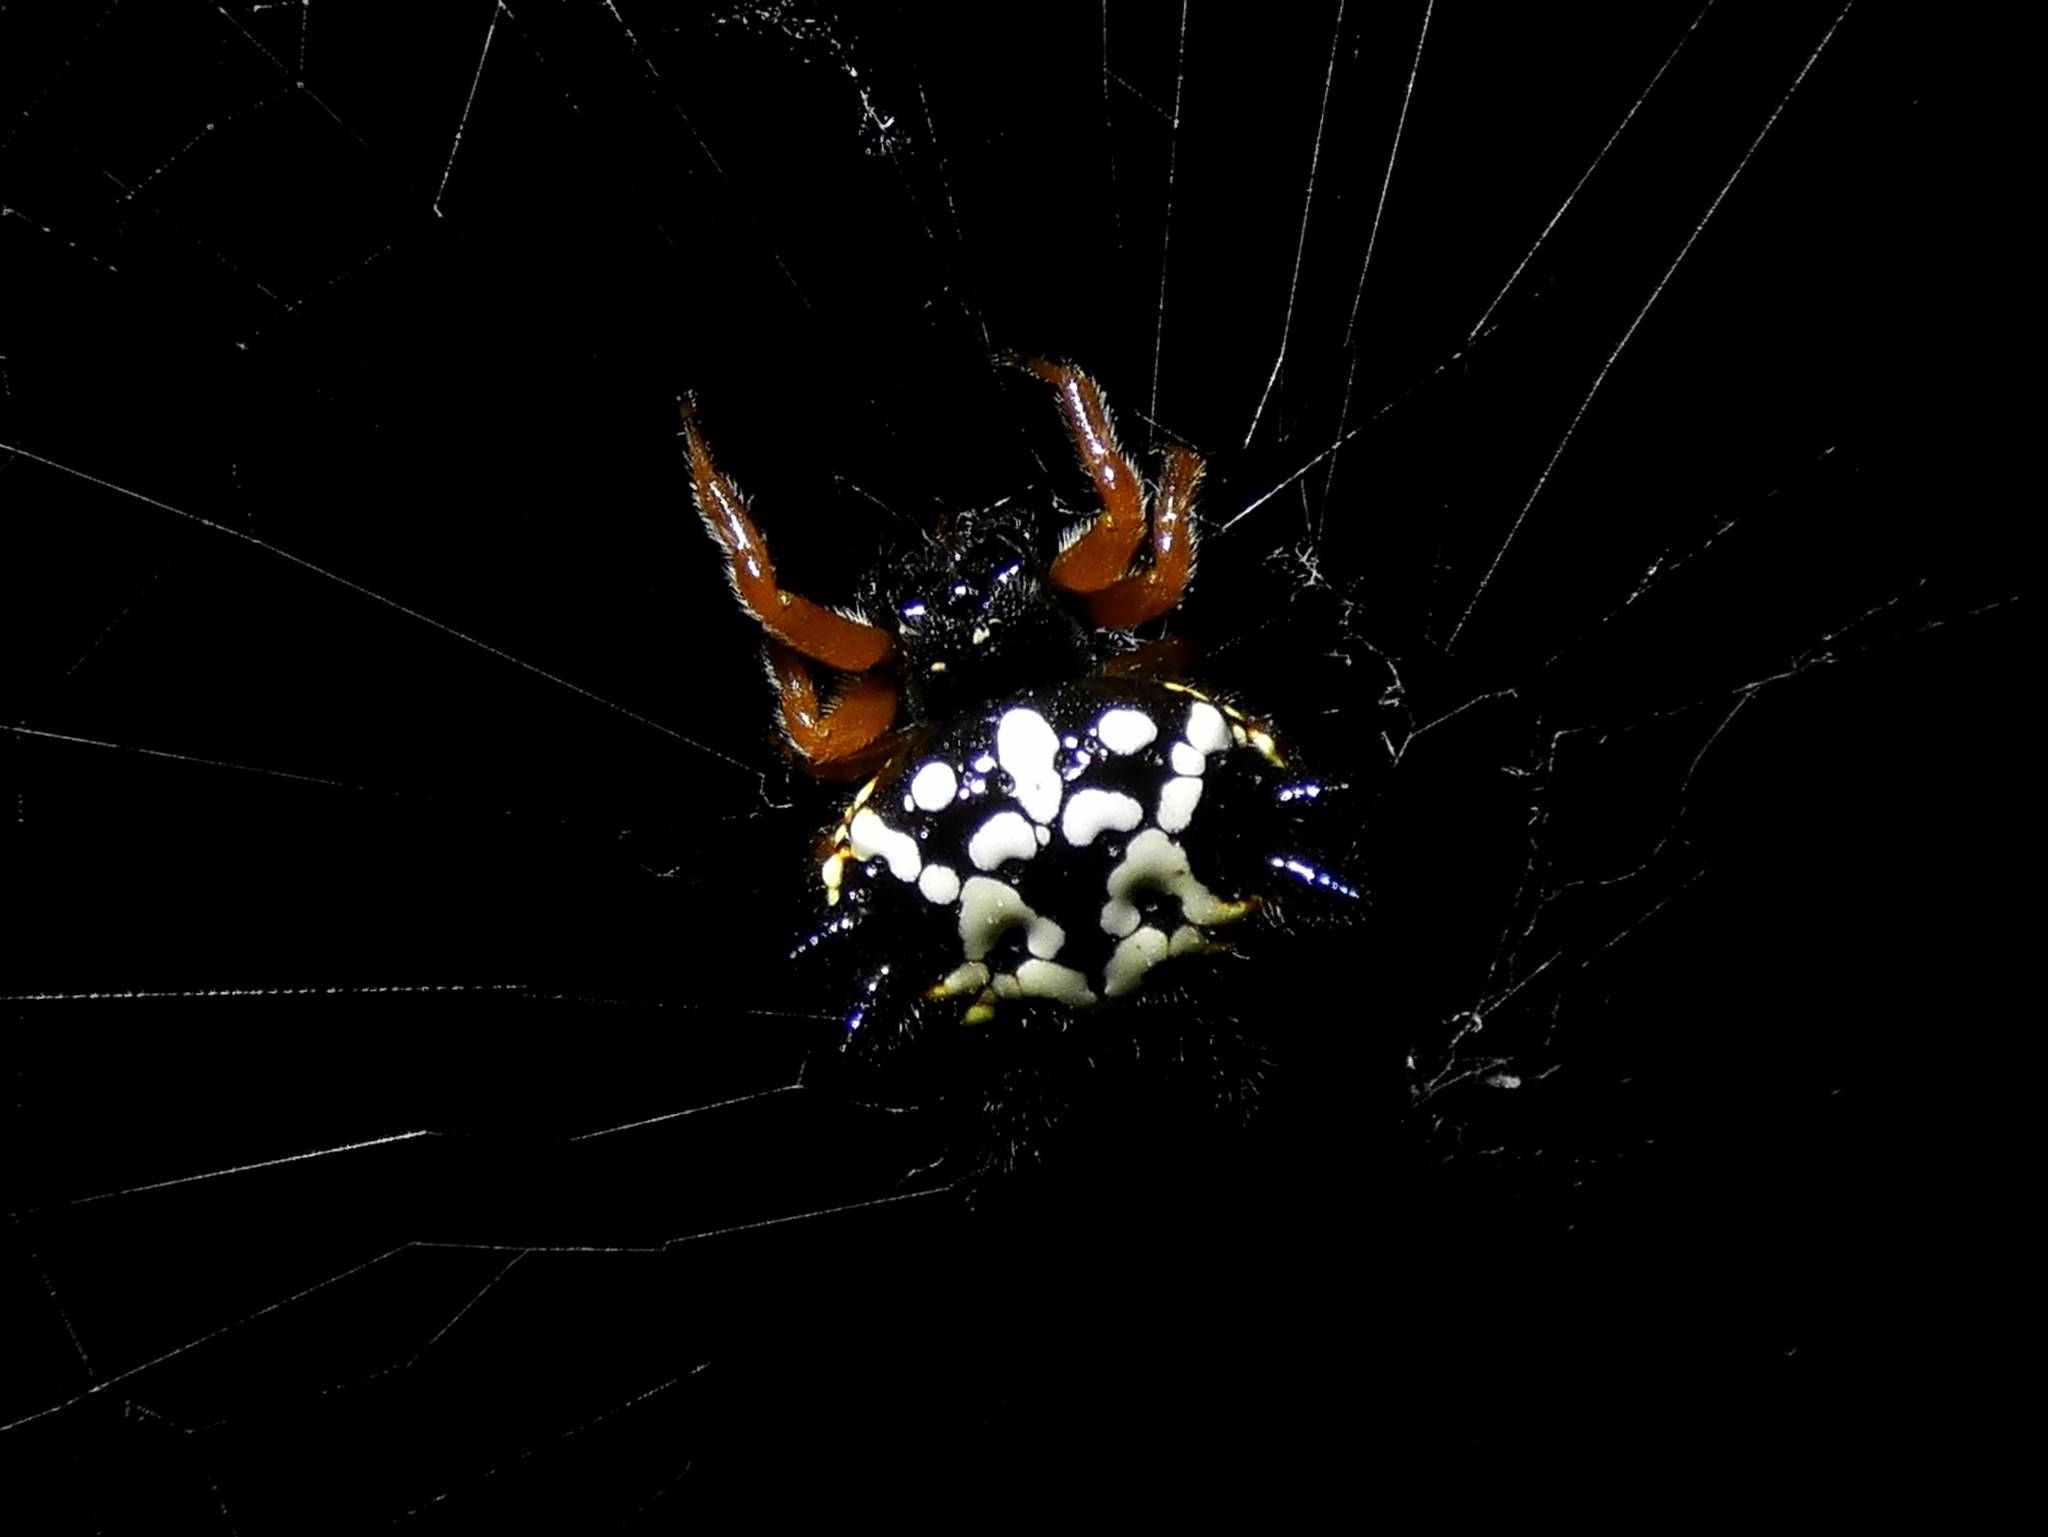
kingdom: Animalia
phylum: Arthropoda
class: Arachnida
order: Araneae
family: Araneidae
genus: Austracantha
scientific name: Austracantha minax
